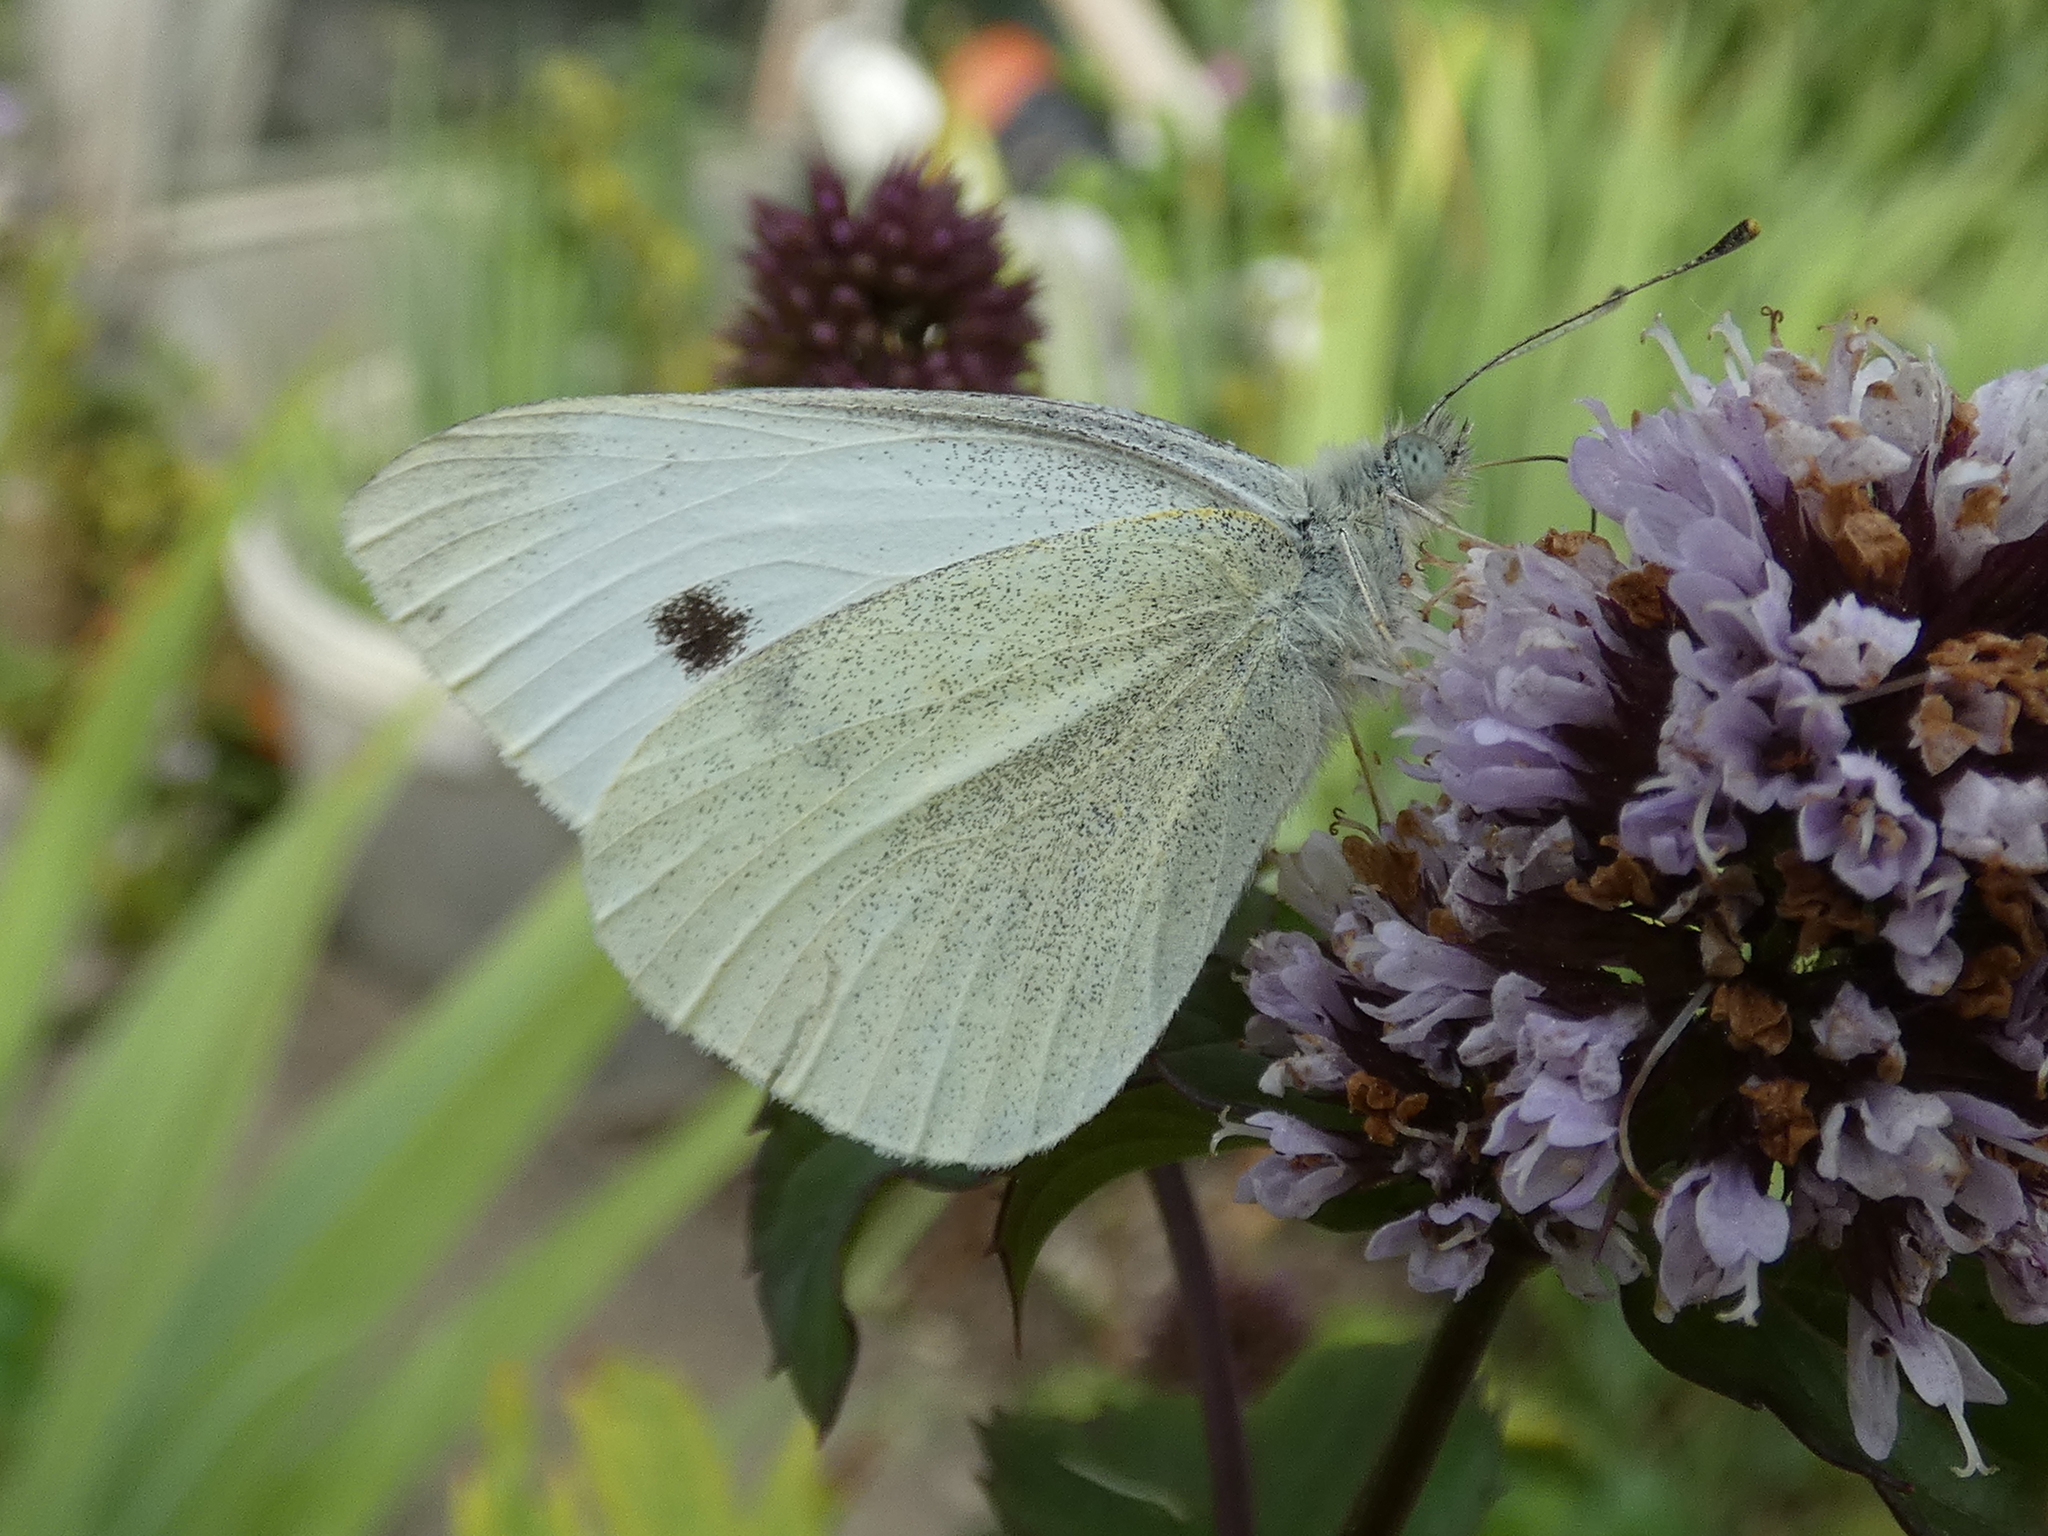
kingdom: Animalia
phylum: Arthropoda
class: Insecta
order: Lepidoptera
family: Pieridae
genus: Pieris
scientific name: Pieris rapae
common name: Small white
